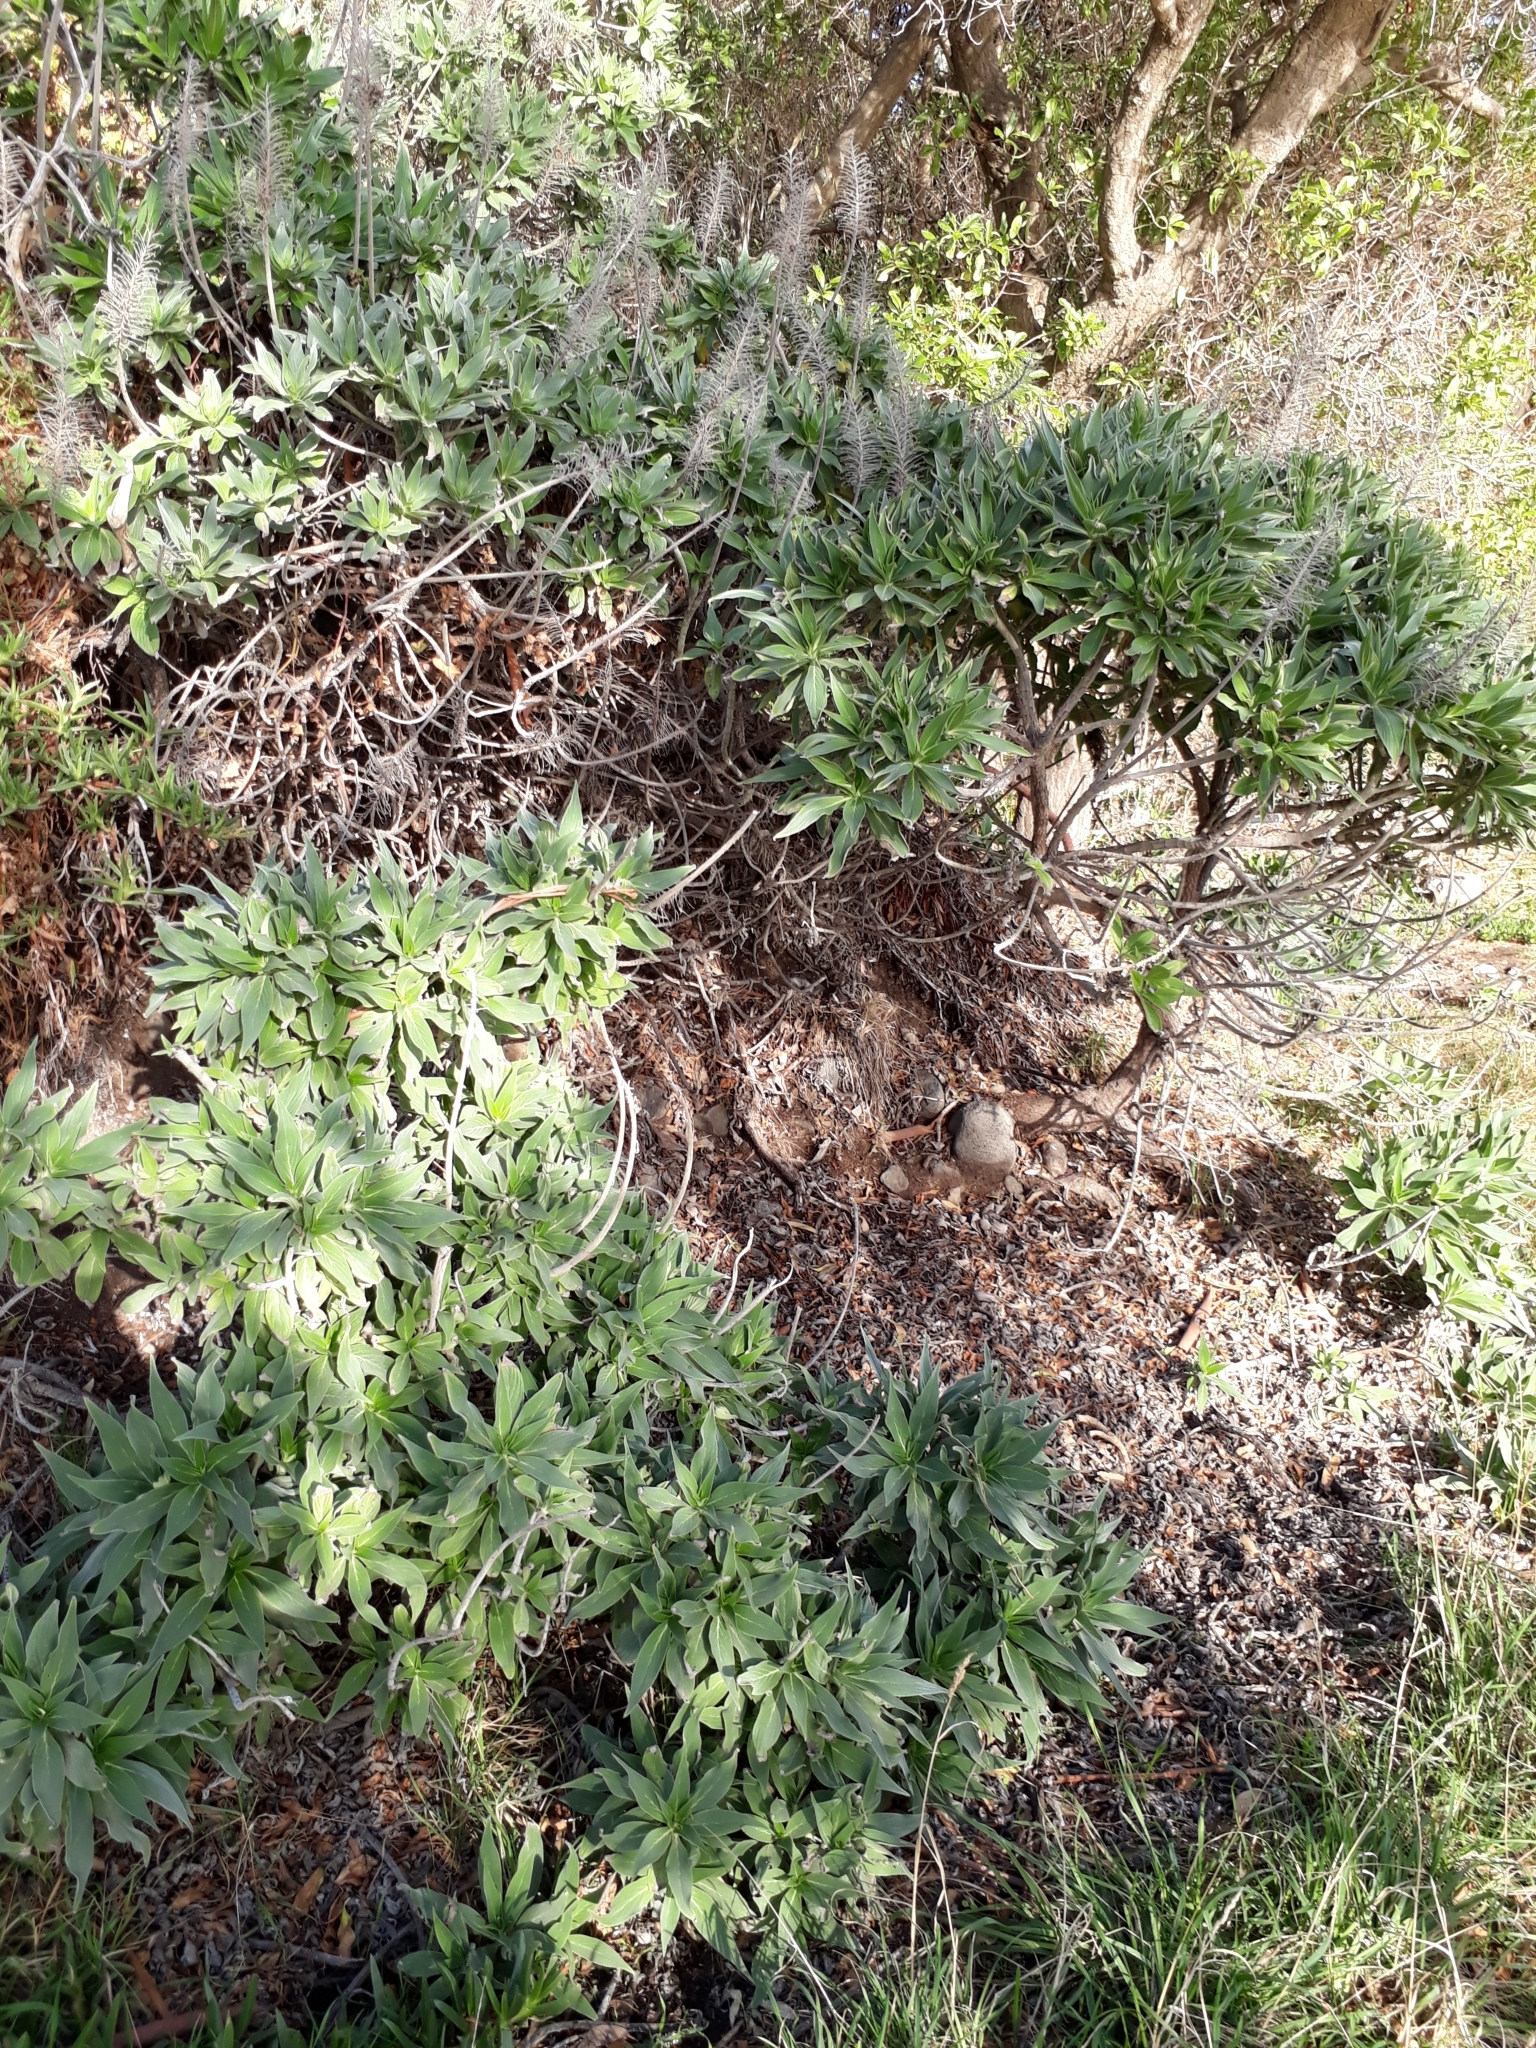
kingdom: Plantae
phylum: Tracheophyta
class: Magnoliopsida
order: Boraginales
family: Boraginaceae
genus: Echium
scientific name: Echium candicans
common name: Pride of madeira
